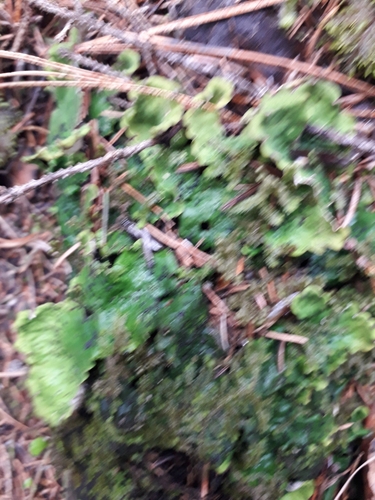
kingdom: Fungi
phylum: Ascomycota
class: Lecanoromycetes
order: Peltigerales
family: Peltigeraceae
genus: Peltigera
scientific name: Peltigera aphthosa
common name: Common freckle pelt lichen
